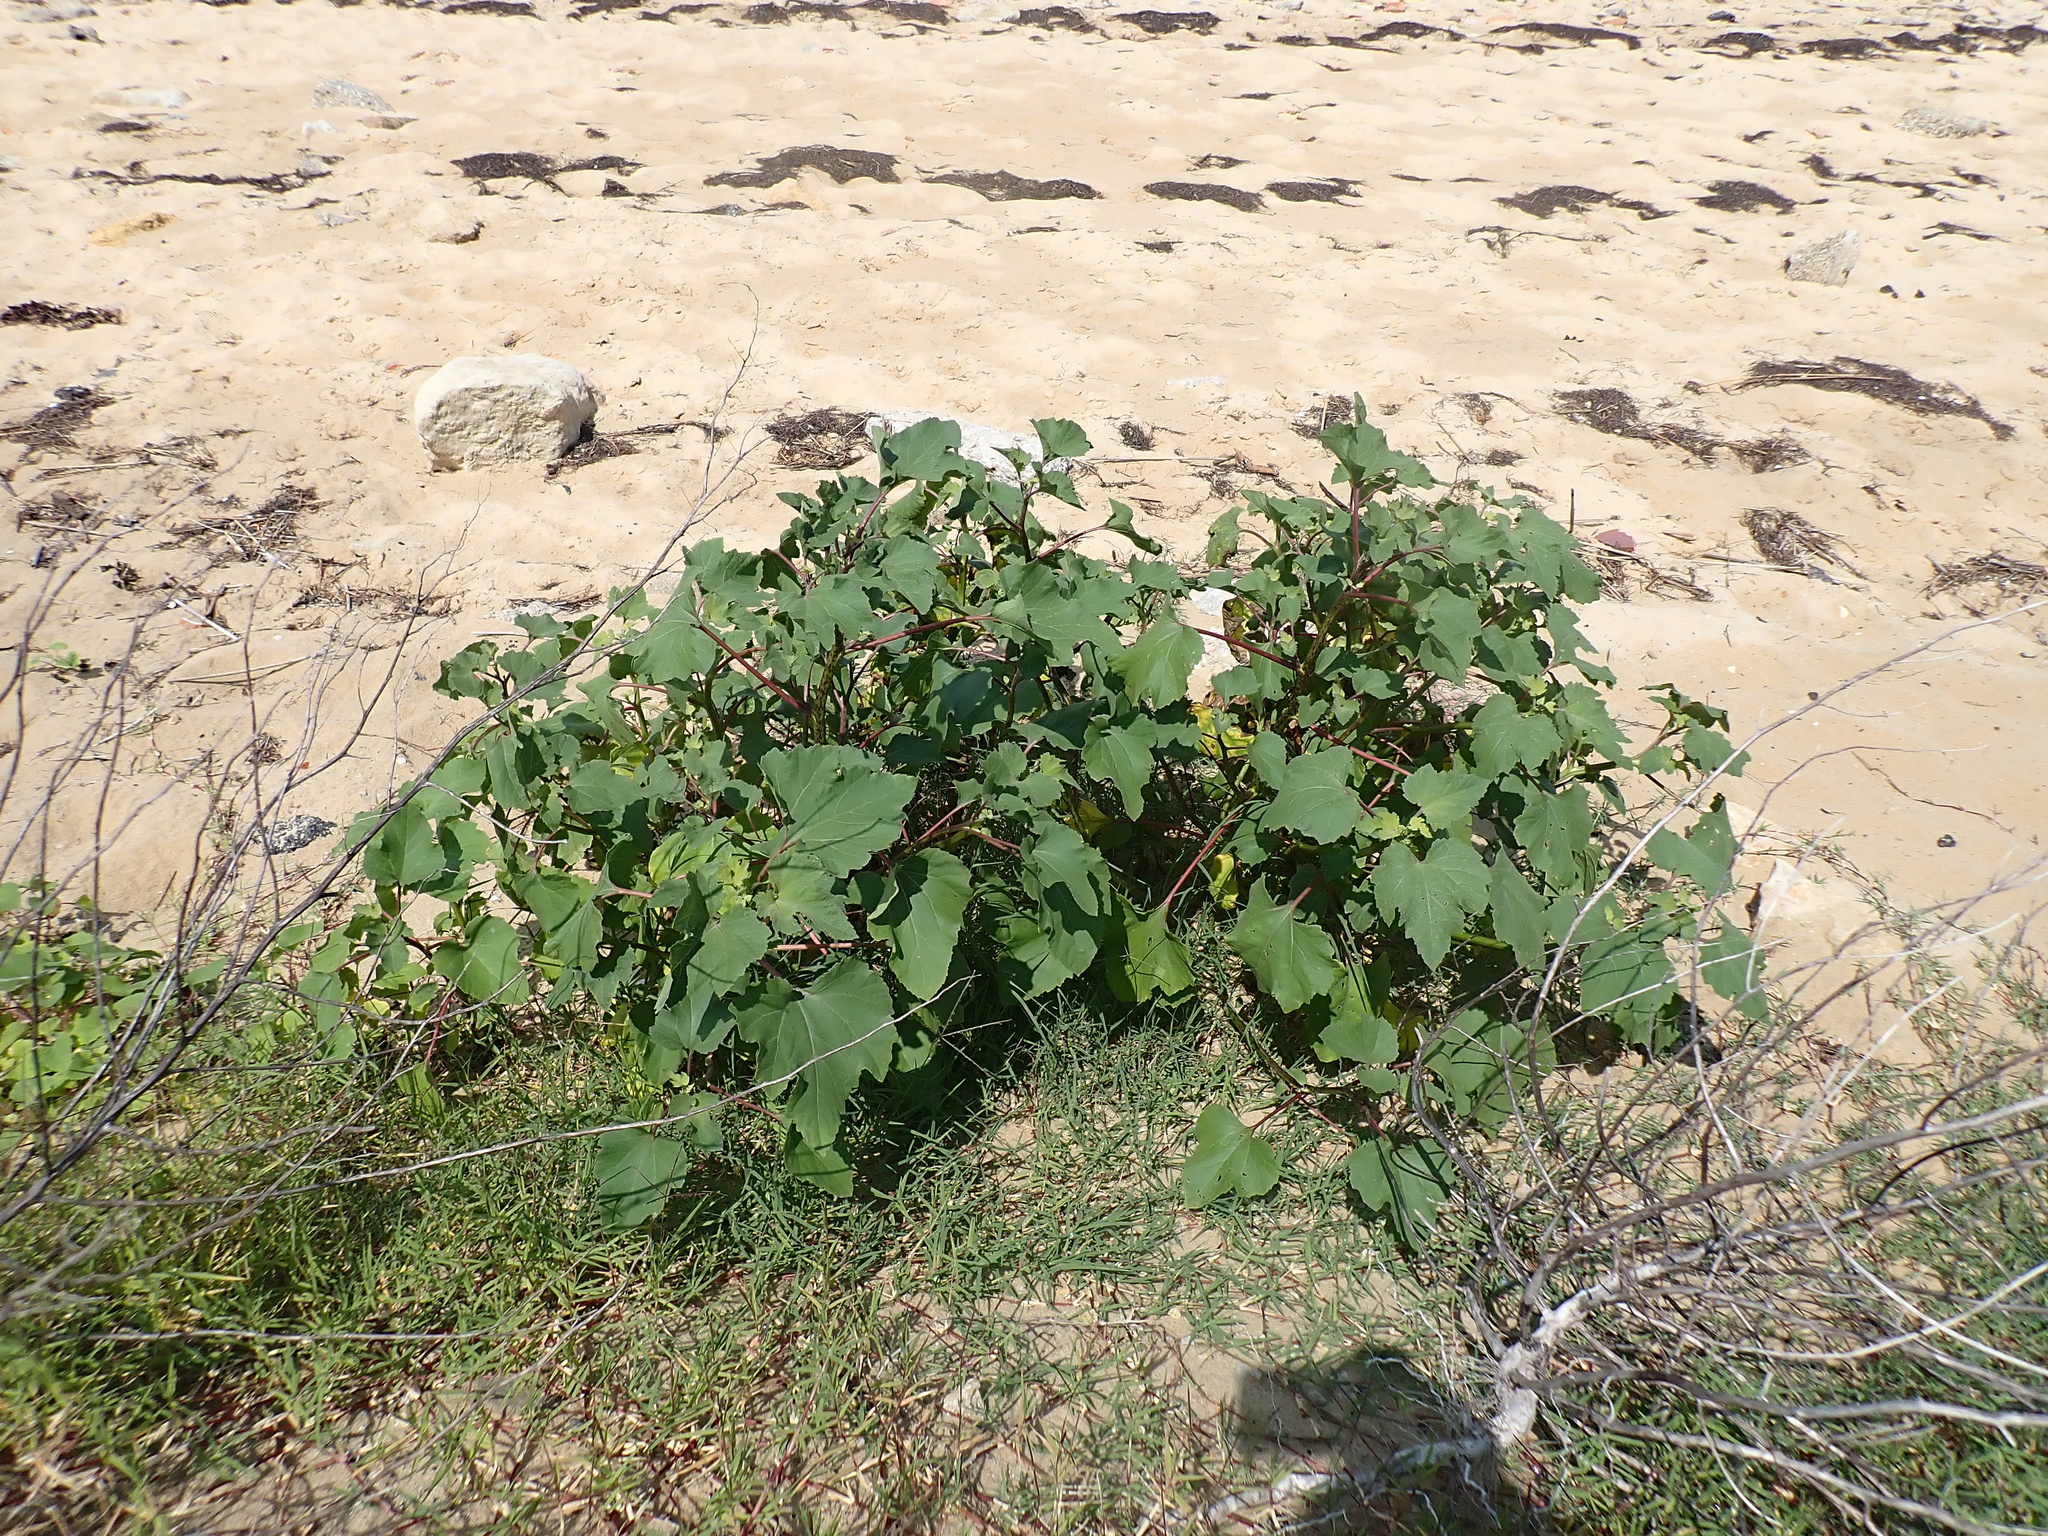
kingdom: Plantae
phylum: Tracheophyta
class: Magnoliopsida
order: Asterales
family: Asteraceae
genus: Xanthium
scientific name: Xanthium strumarium
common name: Rough cocklebur
